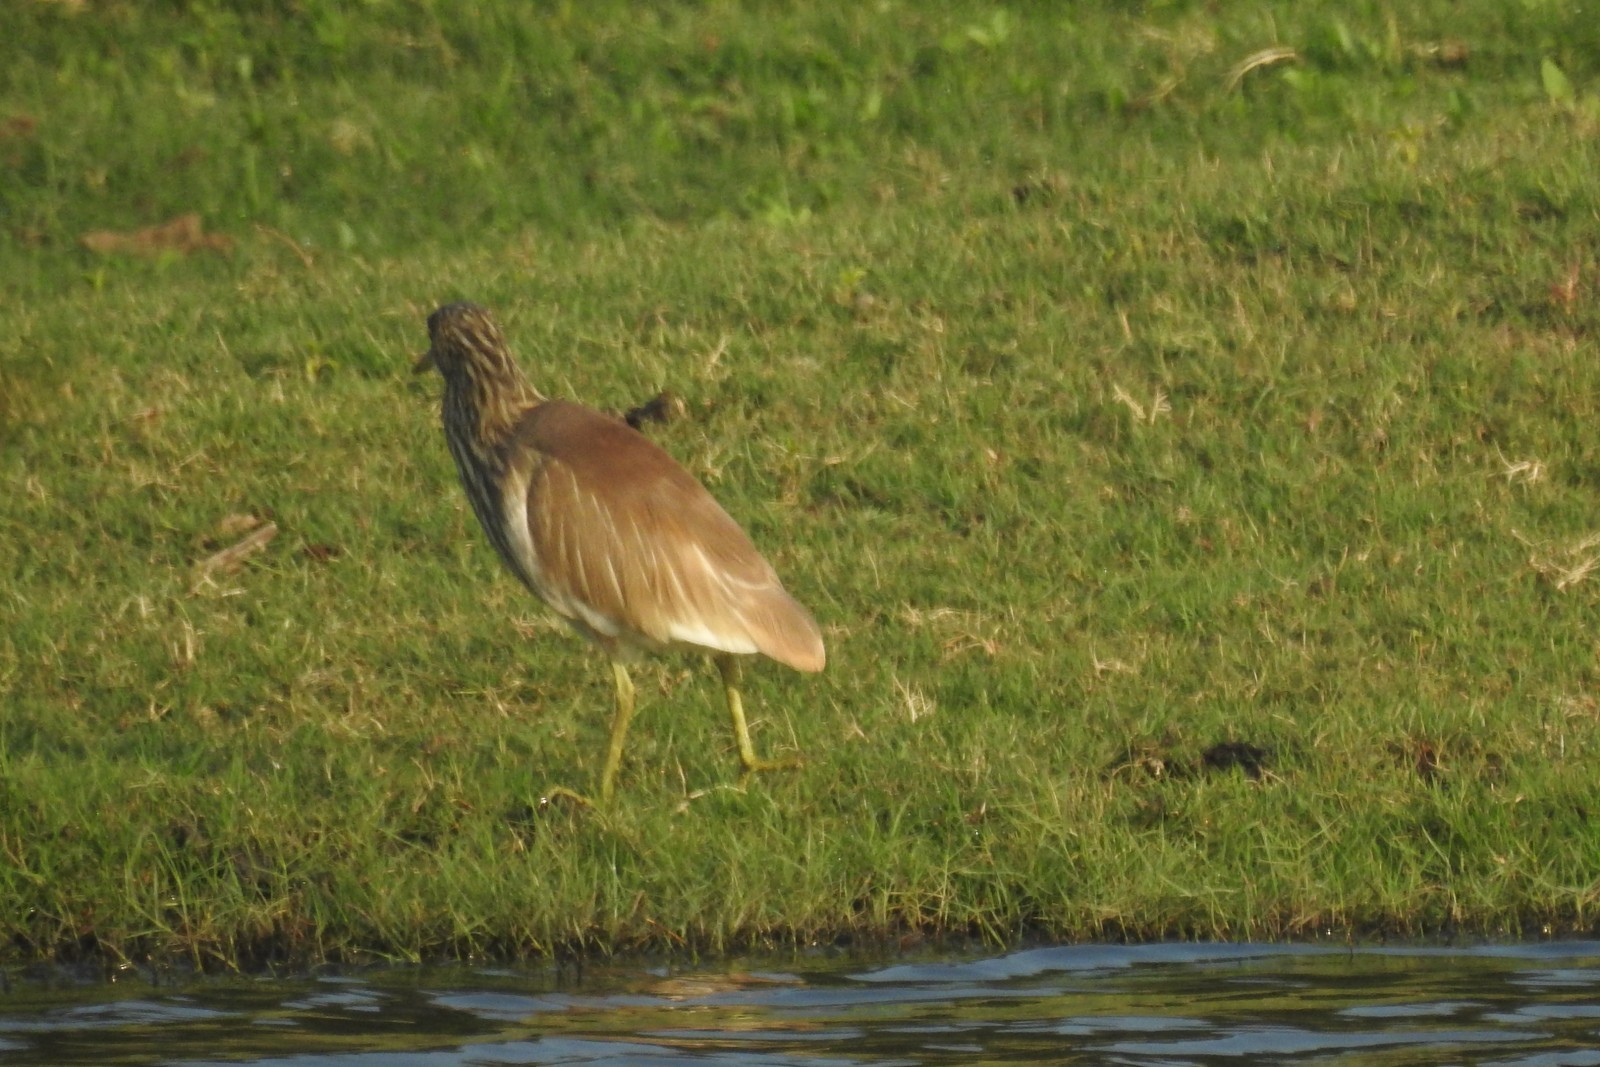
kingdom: Animalia
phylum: Chordata
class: Aves
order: Pelecaniformes
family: Ardeidae
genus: Ardeola
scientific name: Ardeola grayii
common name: Indian pond heron
